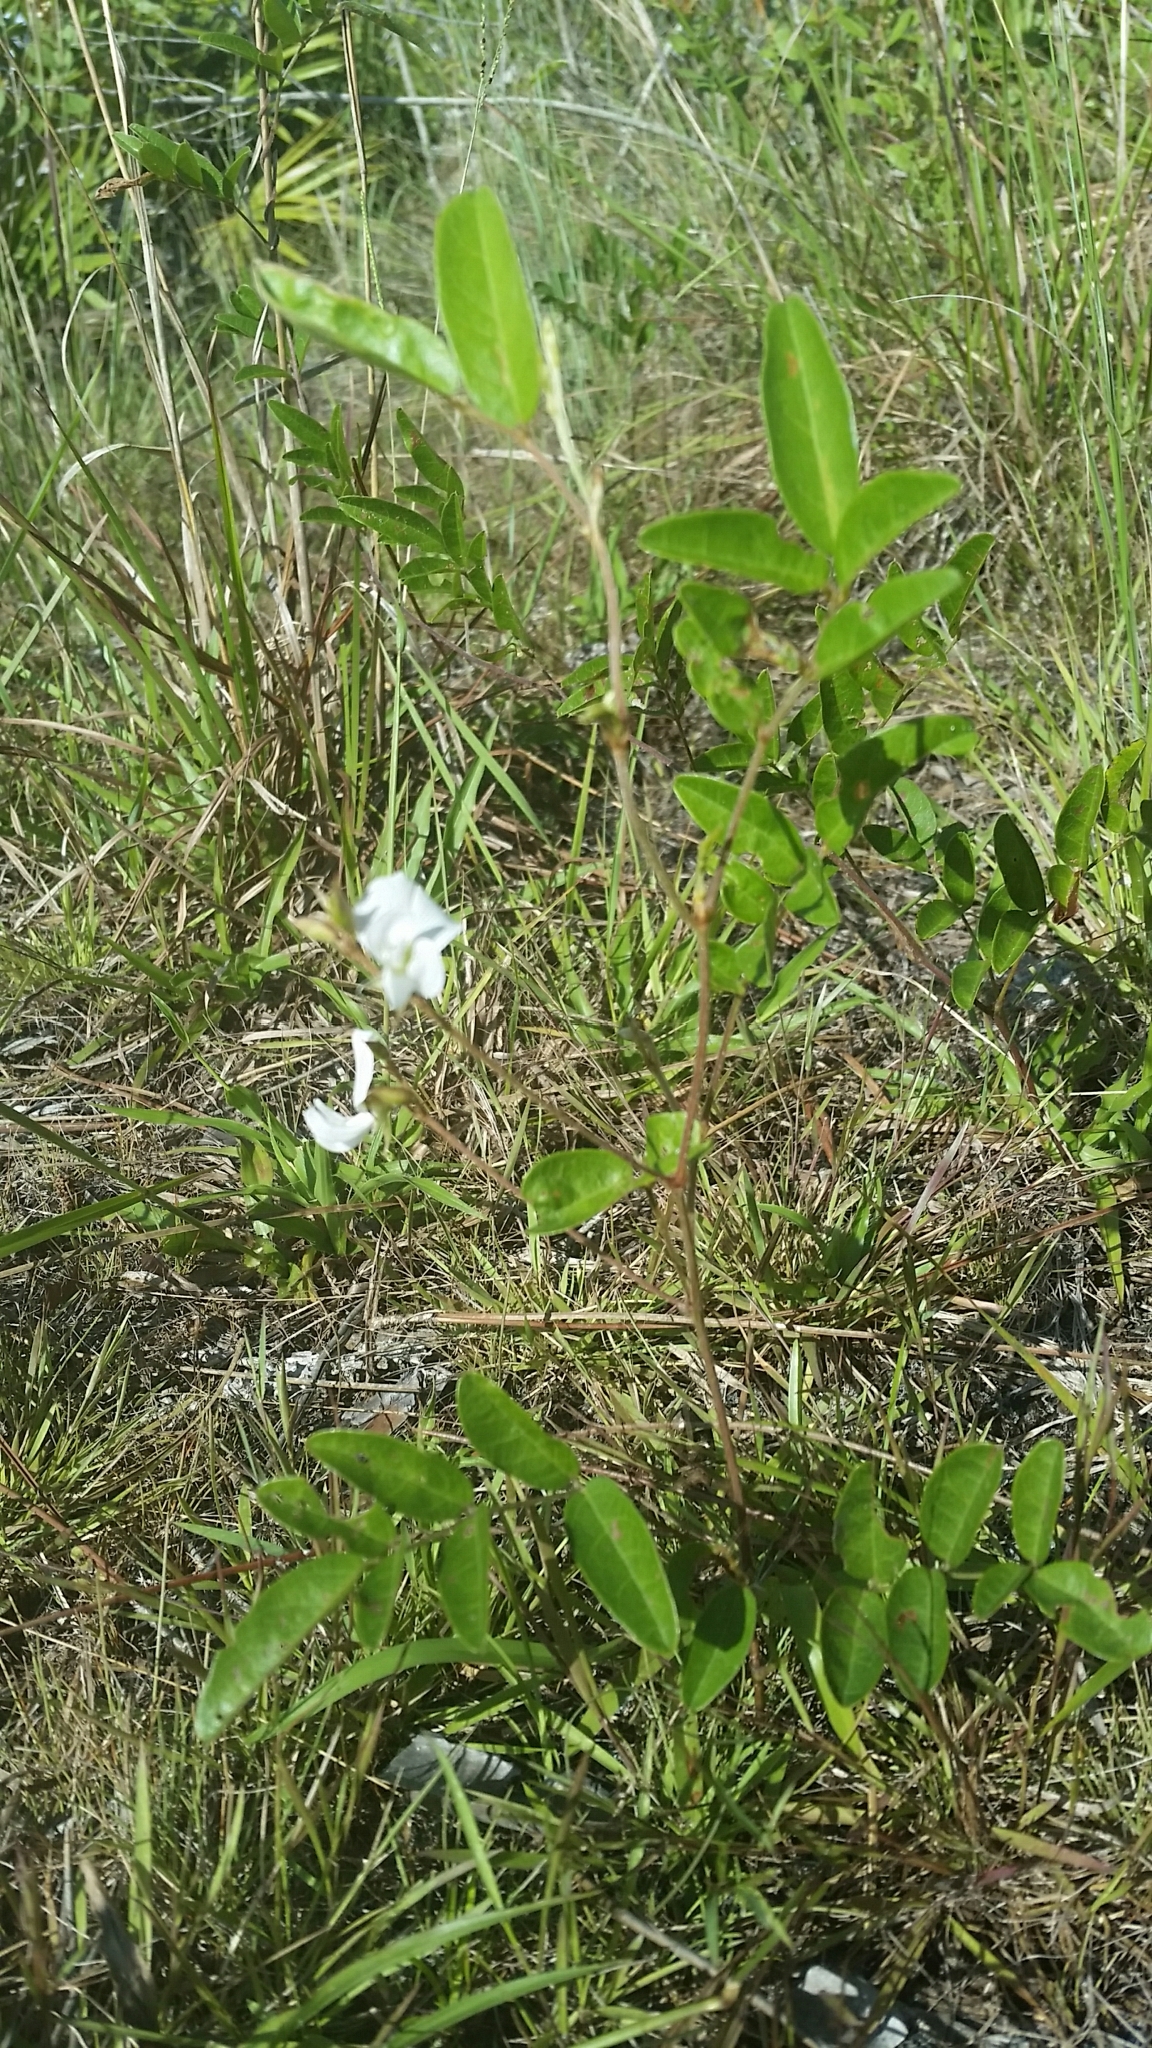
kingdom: Plantae
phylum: Tracheophyta
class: Magnoliopsida
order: Fabales
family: Fabaceae
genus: Galactia
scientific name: Galactia elliottii
